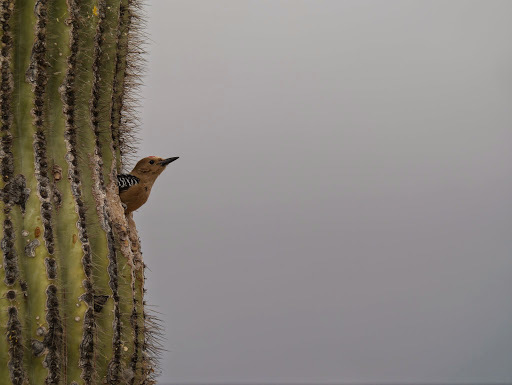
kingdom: Animalia
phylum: Chordata
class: Aves
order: Piciformes
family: Picidae
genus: Melanerpes
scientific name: Melanerpes uropygialis
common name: Gila woodpecker
